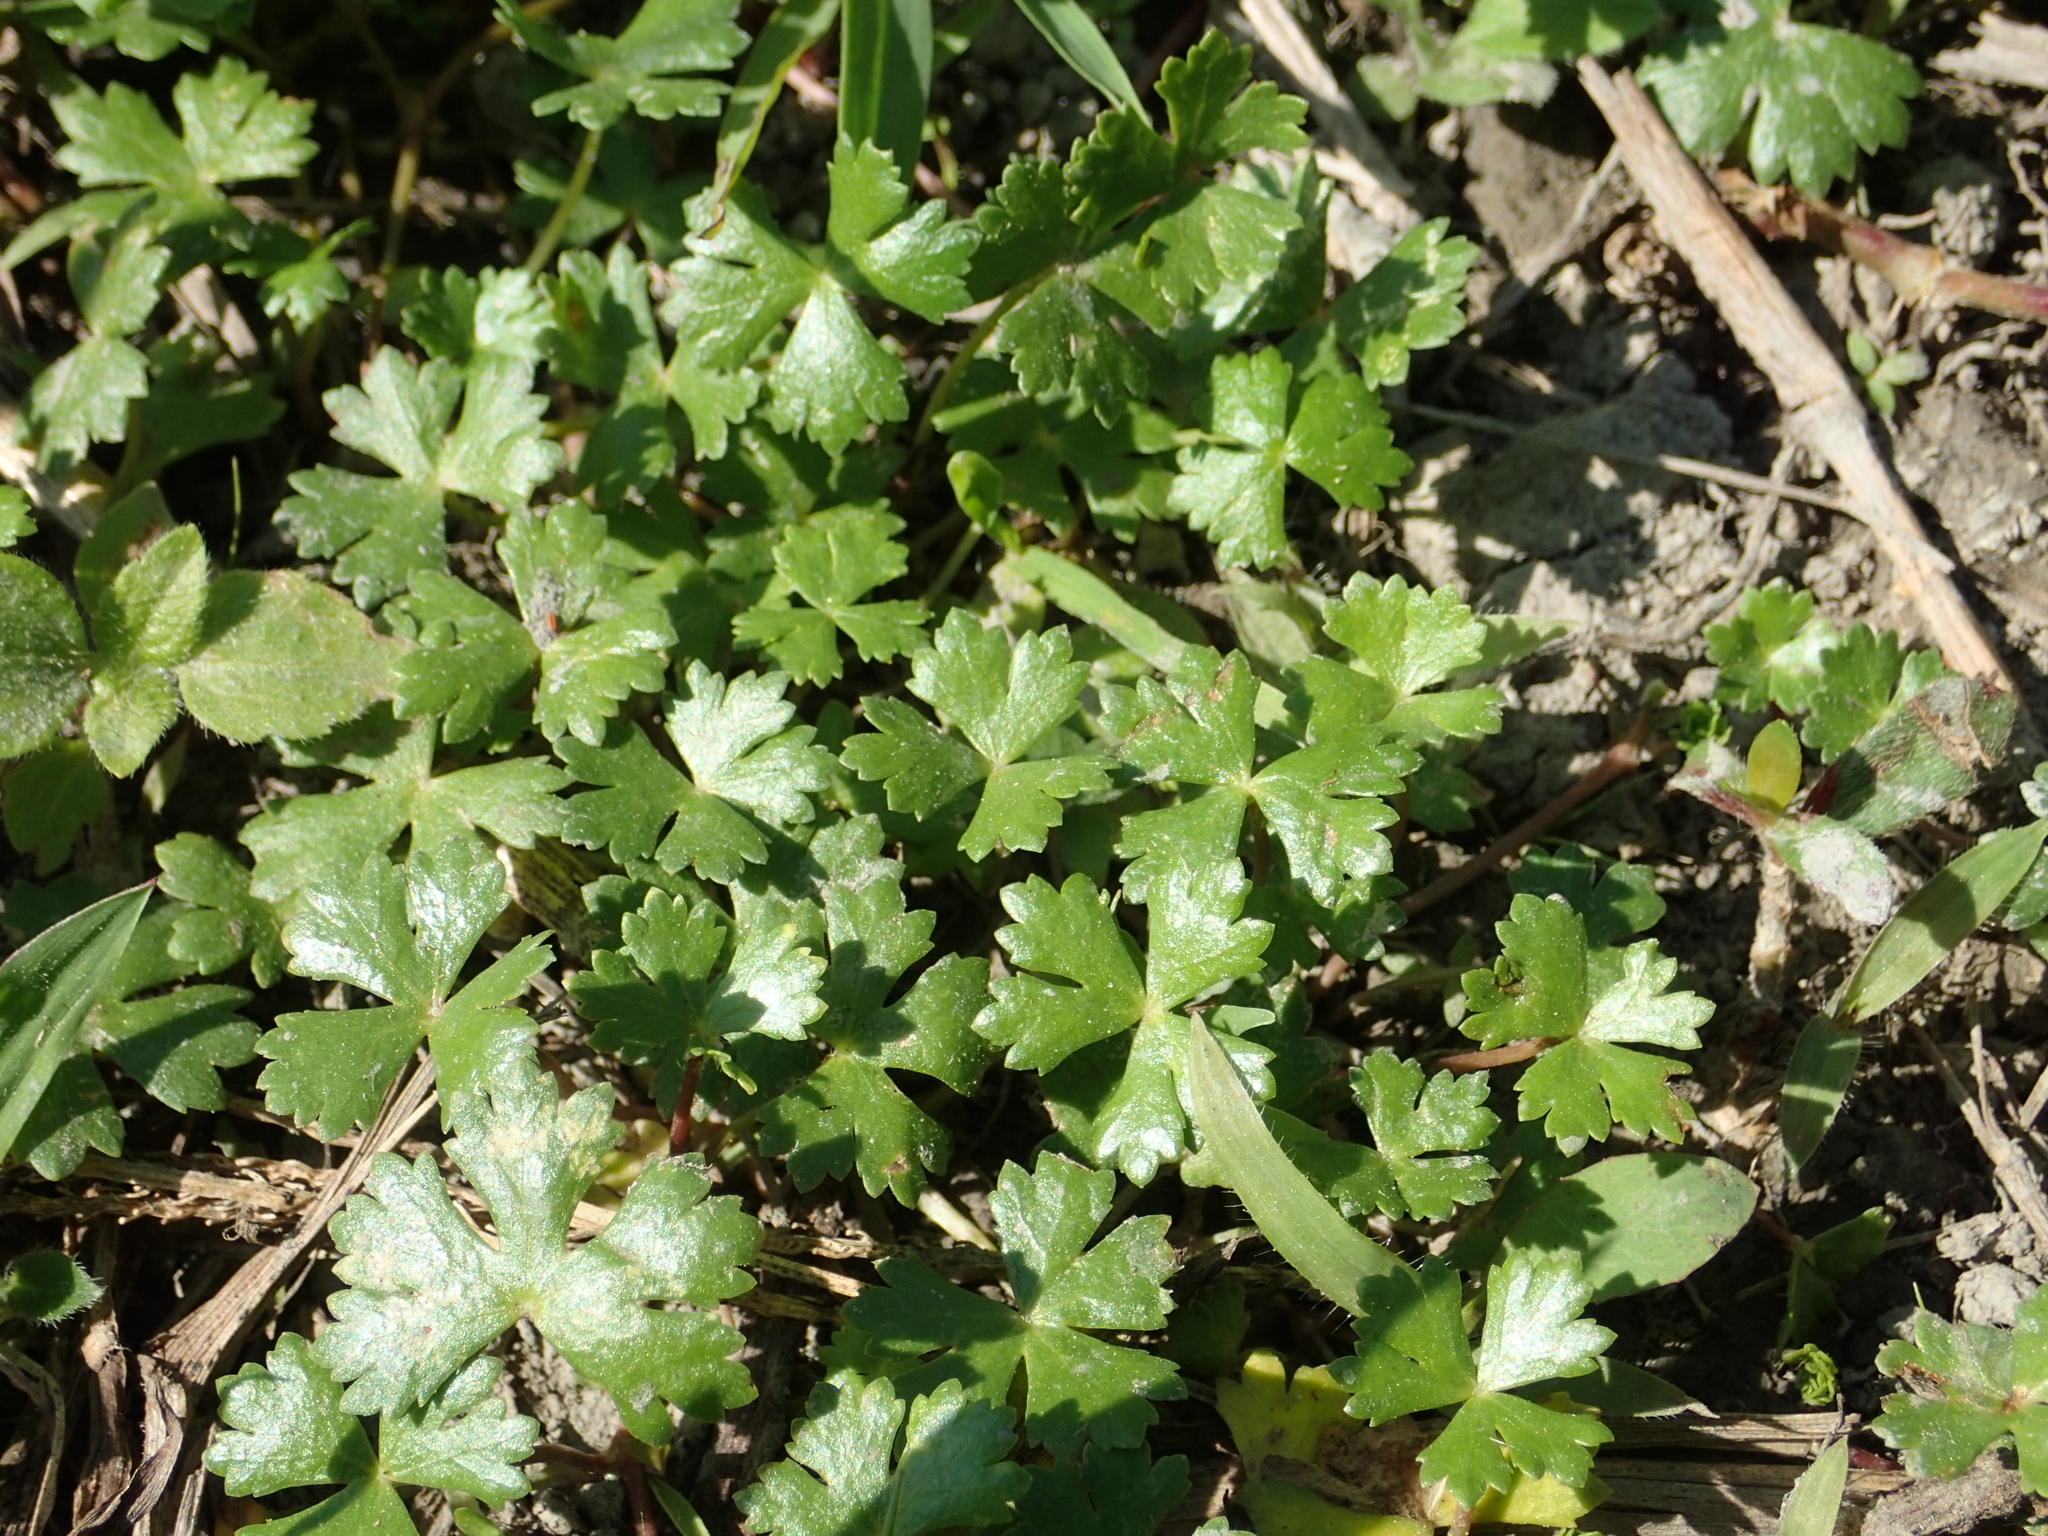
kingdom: Plantae
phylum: Tracheophyta
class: Magnoliopsida
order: Apiales
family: Araliaceae
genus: Hydrocotyle
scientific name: Hydrocotyle batrachium
